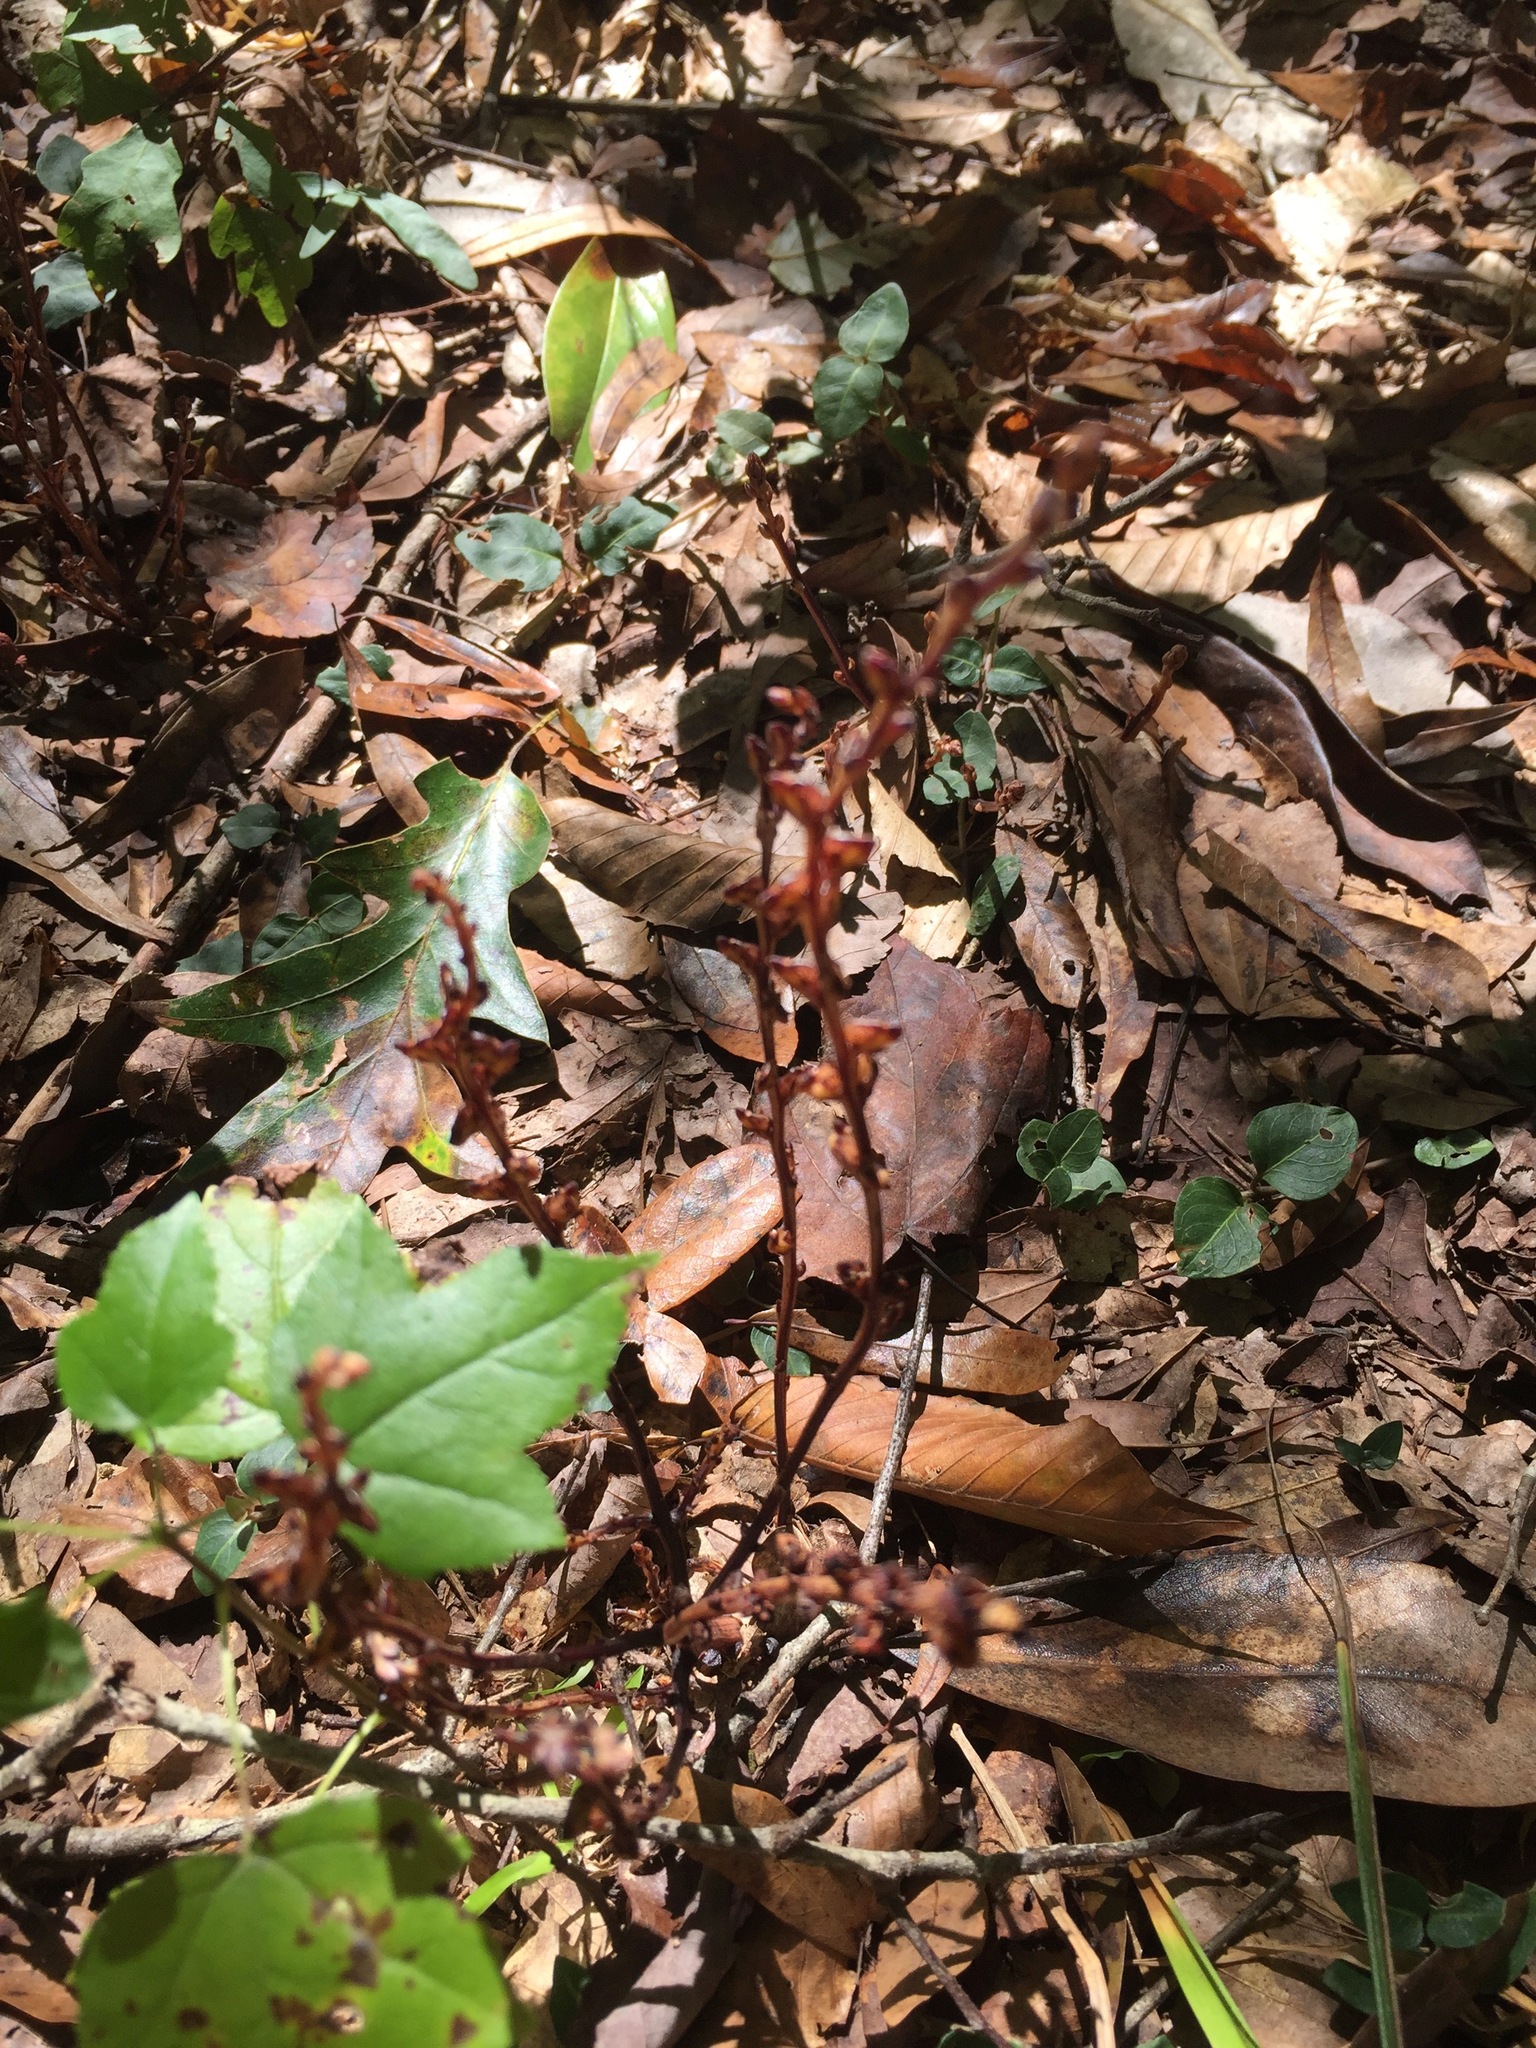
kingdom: Plantae
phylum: Tracheophyta
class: Magnoliopsida
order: Lamiales
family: Orobanchaceae
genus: Epifagus
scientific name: Epifagus virginiana
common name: Beechdrops
